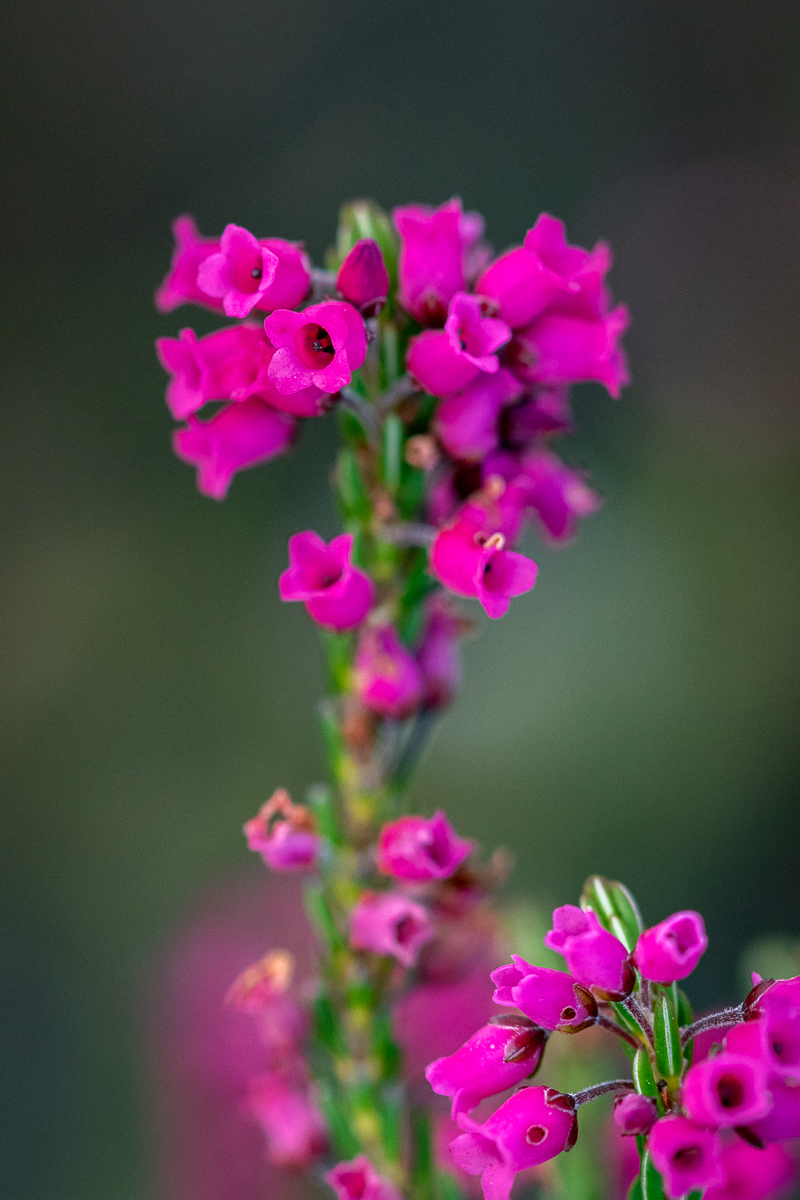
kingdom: Plantae
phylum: Tracheophyta
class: Magnoliopsida
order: Ericales
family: Ericaceae
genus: Erica
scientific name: Erica pulchella
